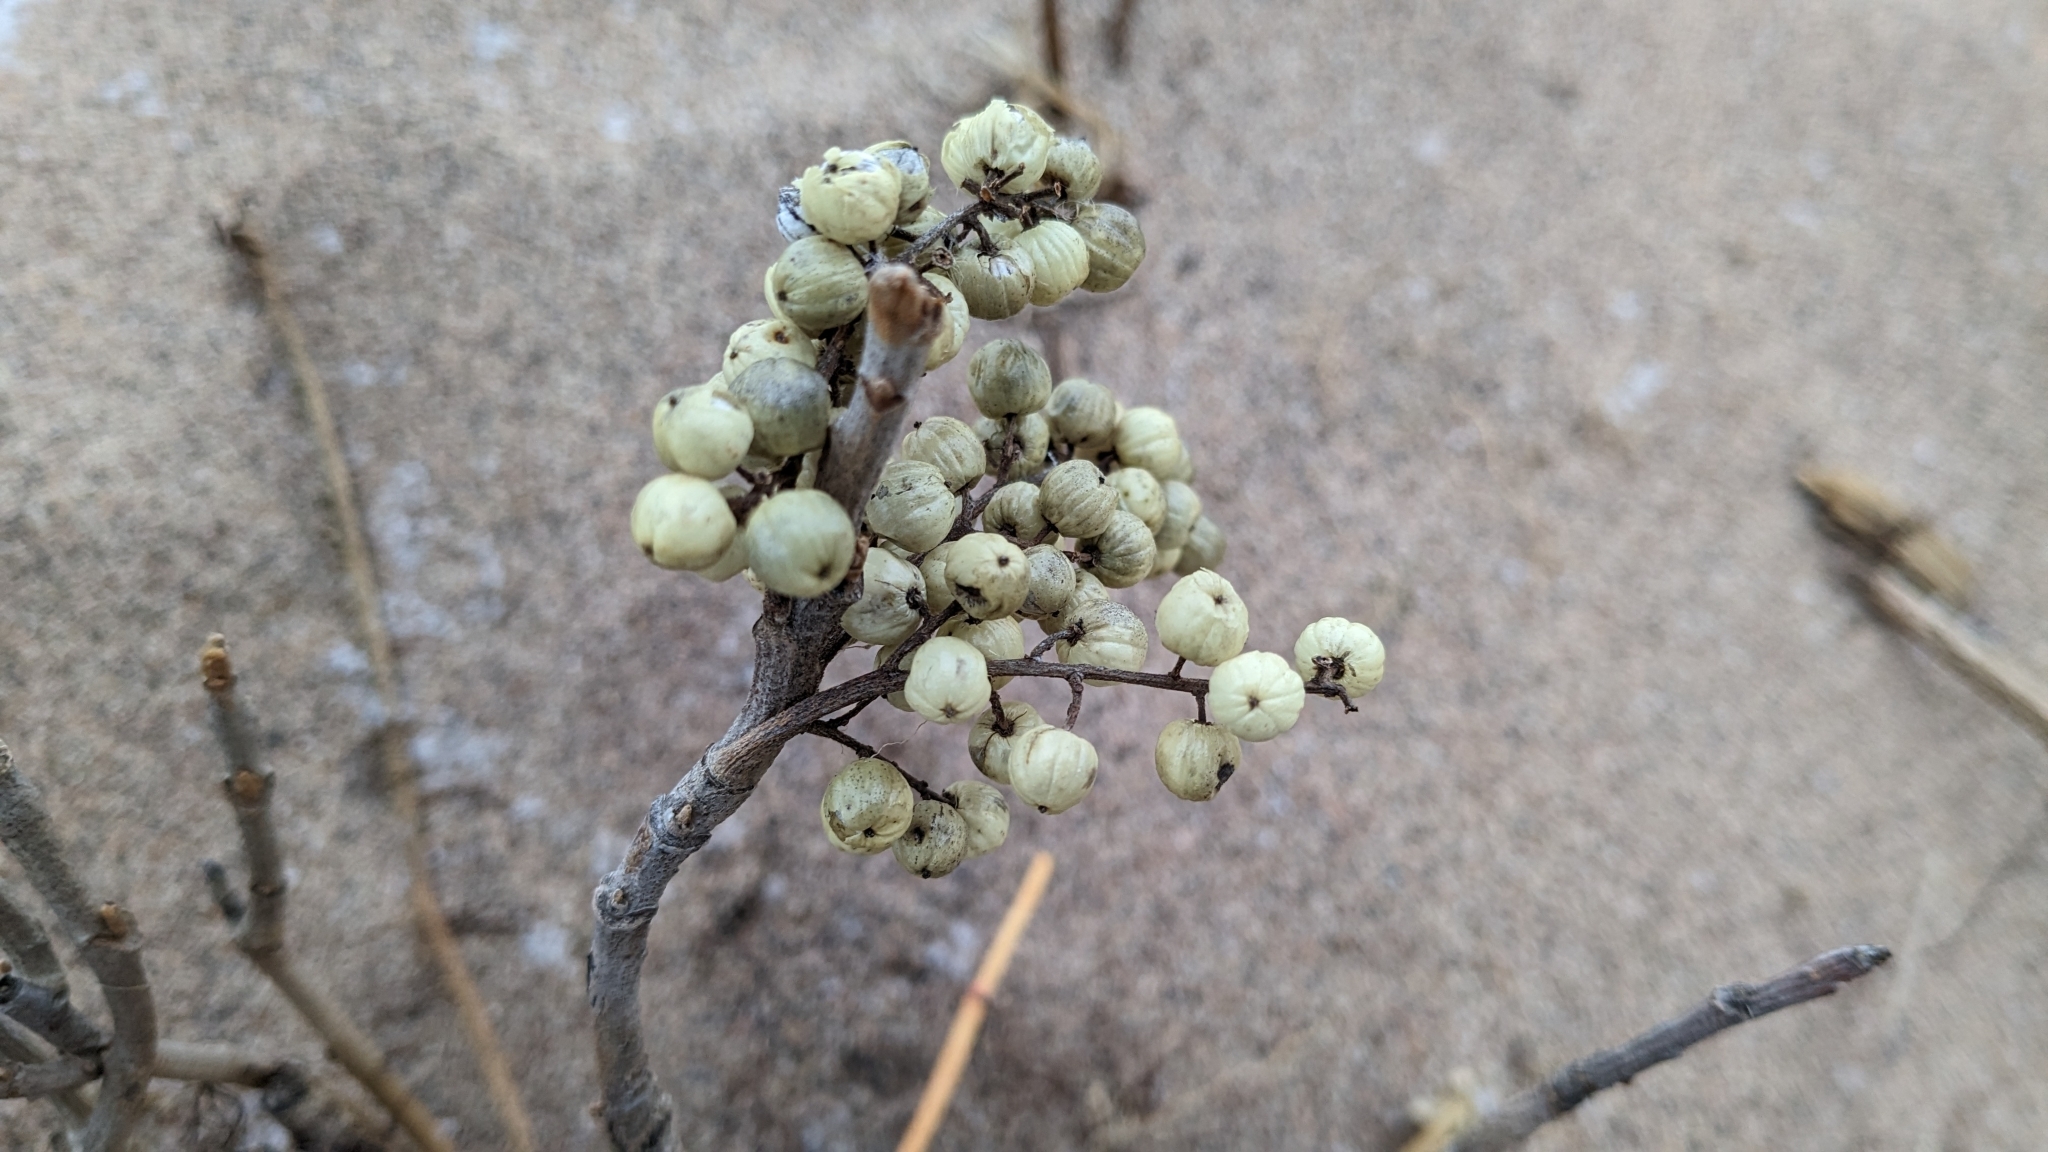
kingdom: Plantae
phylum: Tracheophyta
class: Magnoliopsida
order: Sapindales
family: Anacardiaceae
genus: Toxicodendron
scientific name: Toxicodendron rydbergii
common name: Rydberg's poison-ivy
